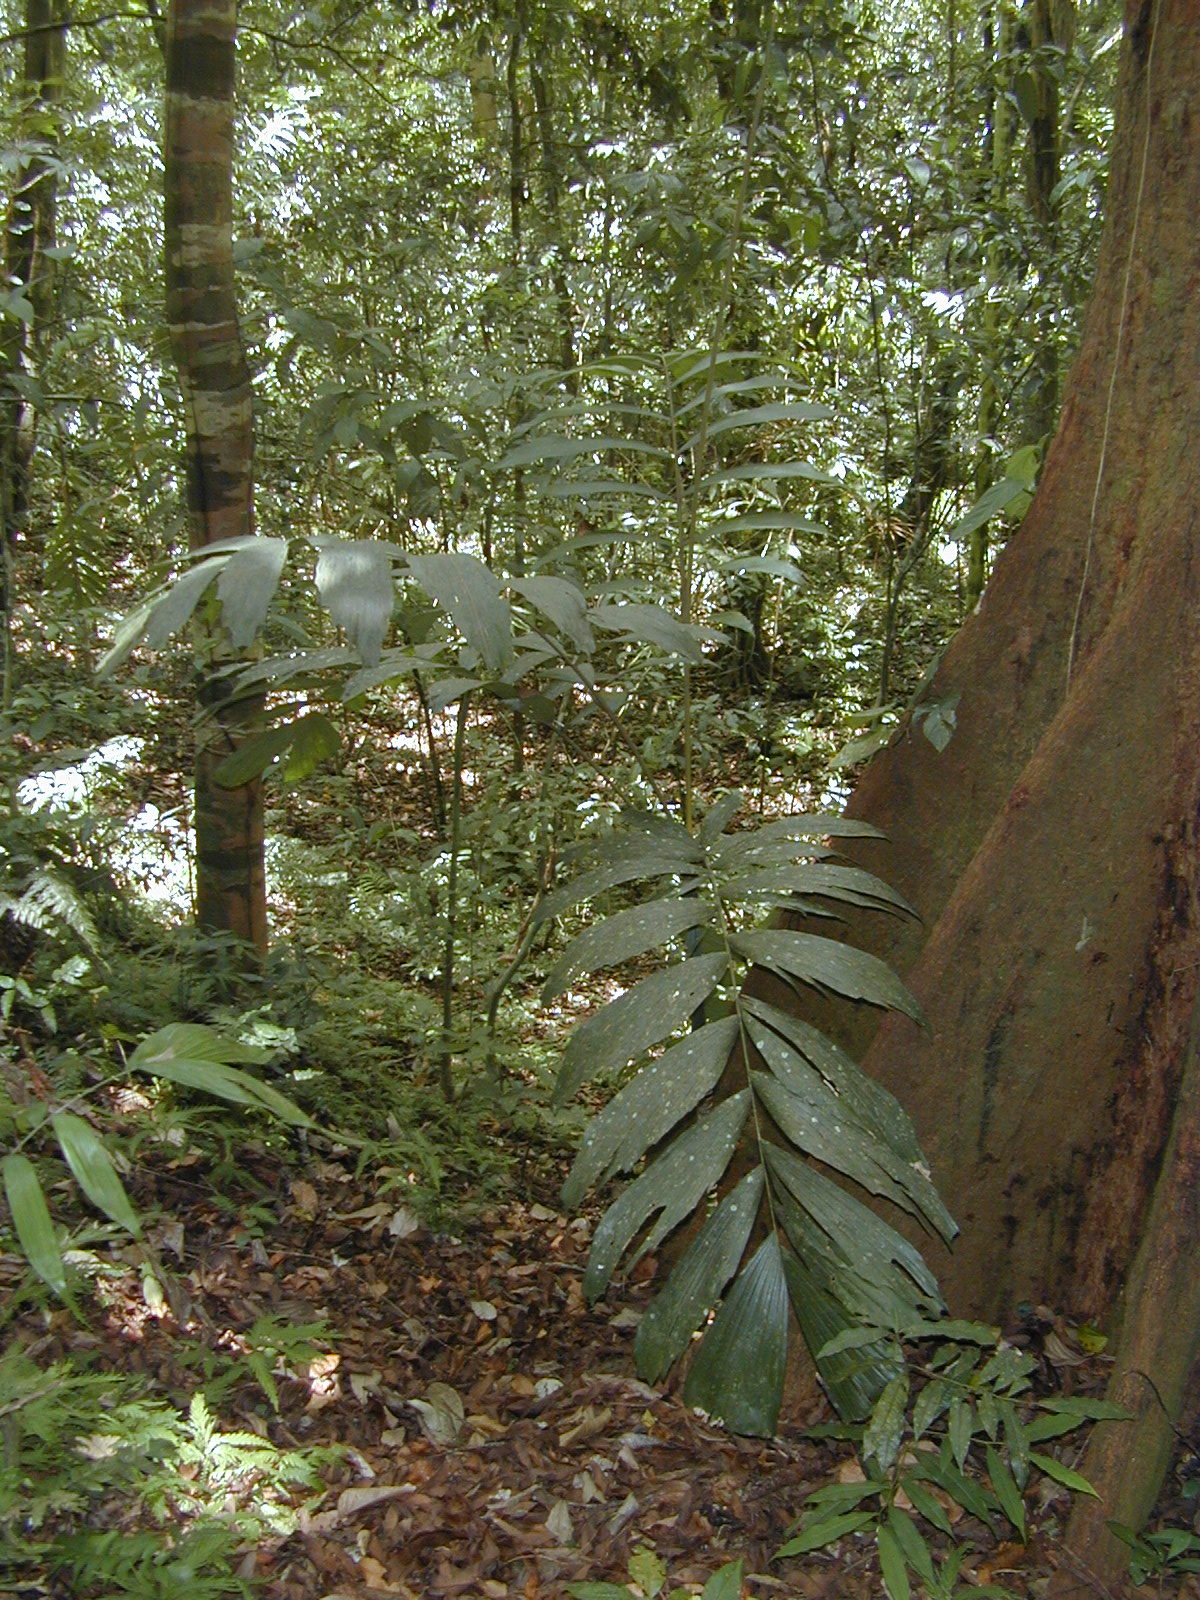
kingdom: Plantae
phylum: Tracheophyta
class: Liliopsida
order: Arecales
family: Arecaceae
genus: Socratea
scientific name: Socratea exorrhiza
